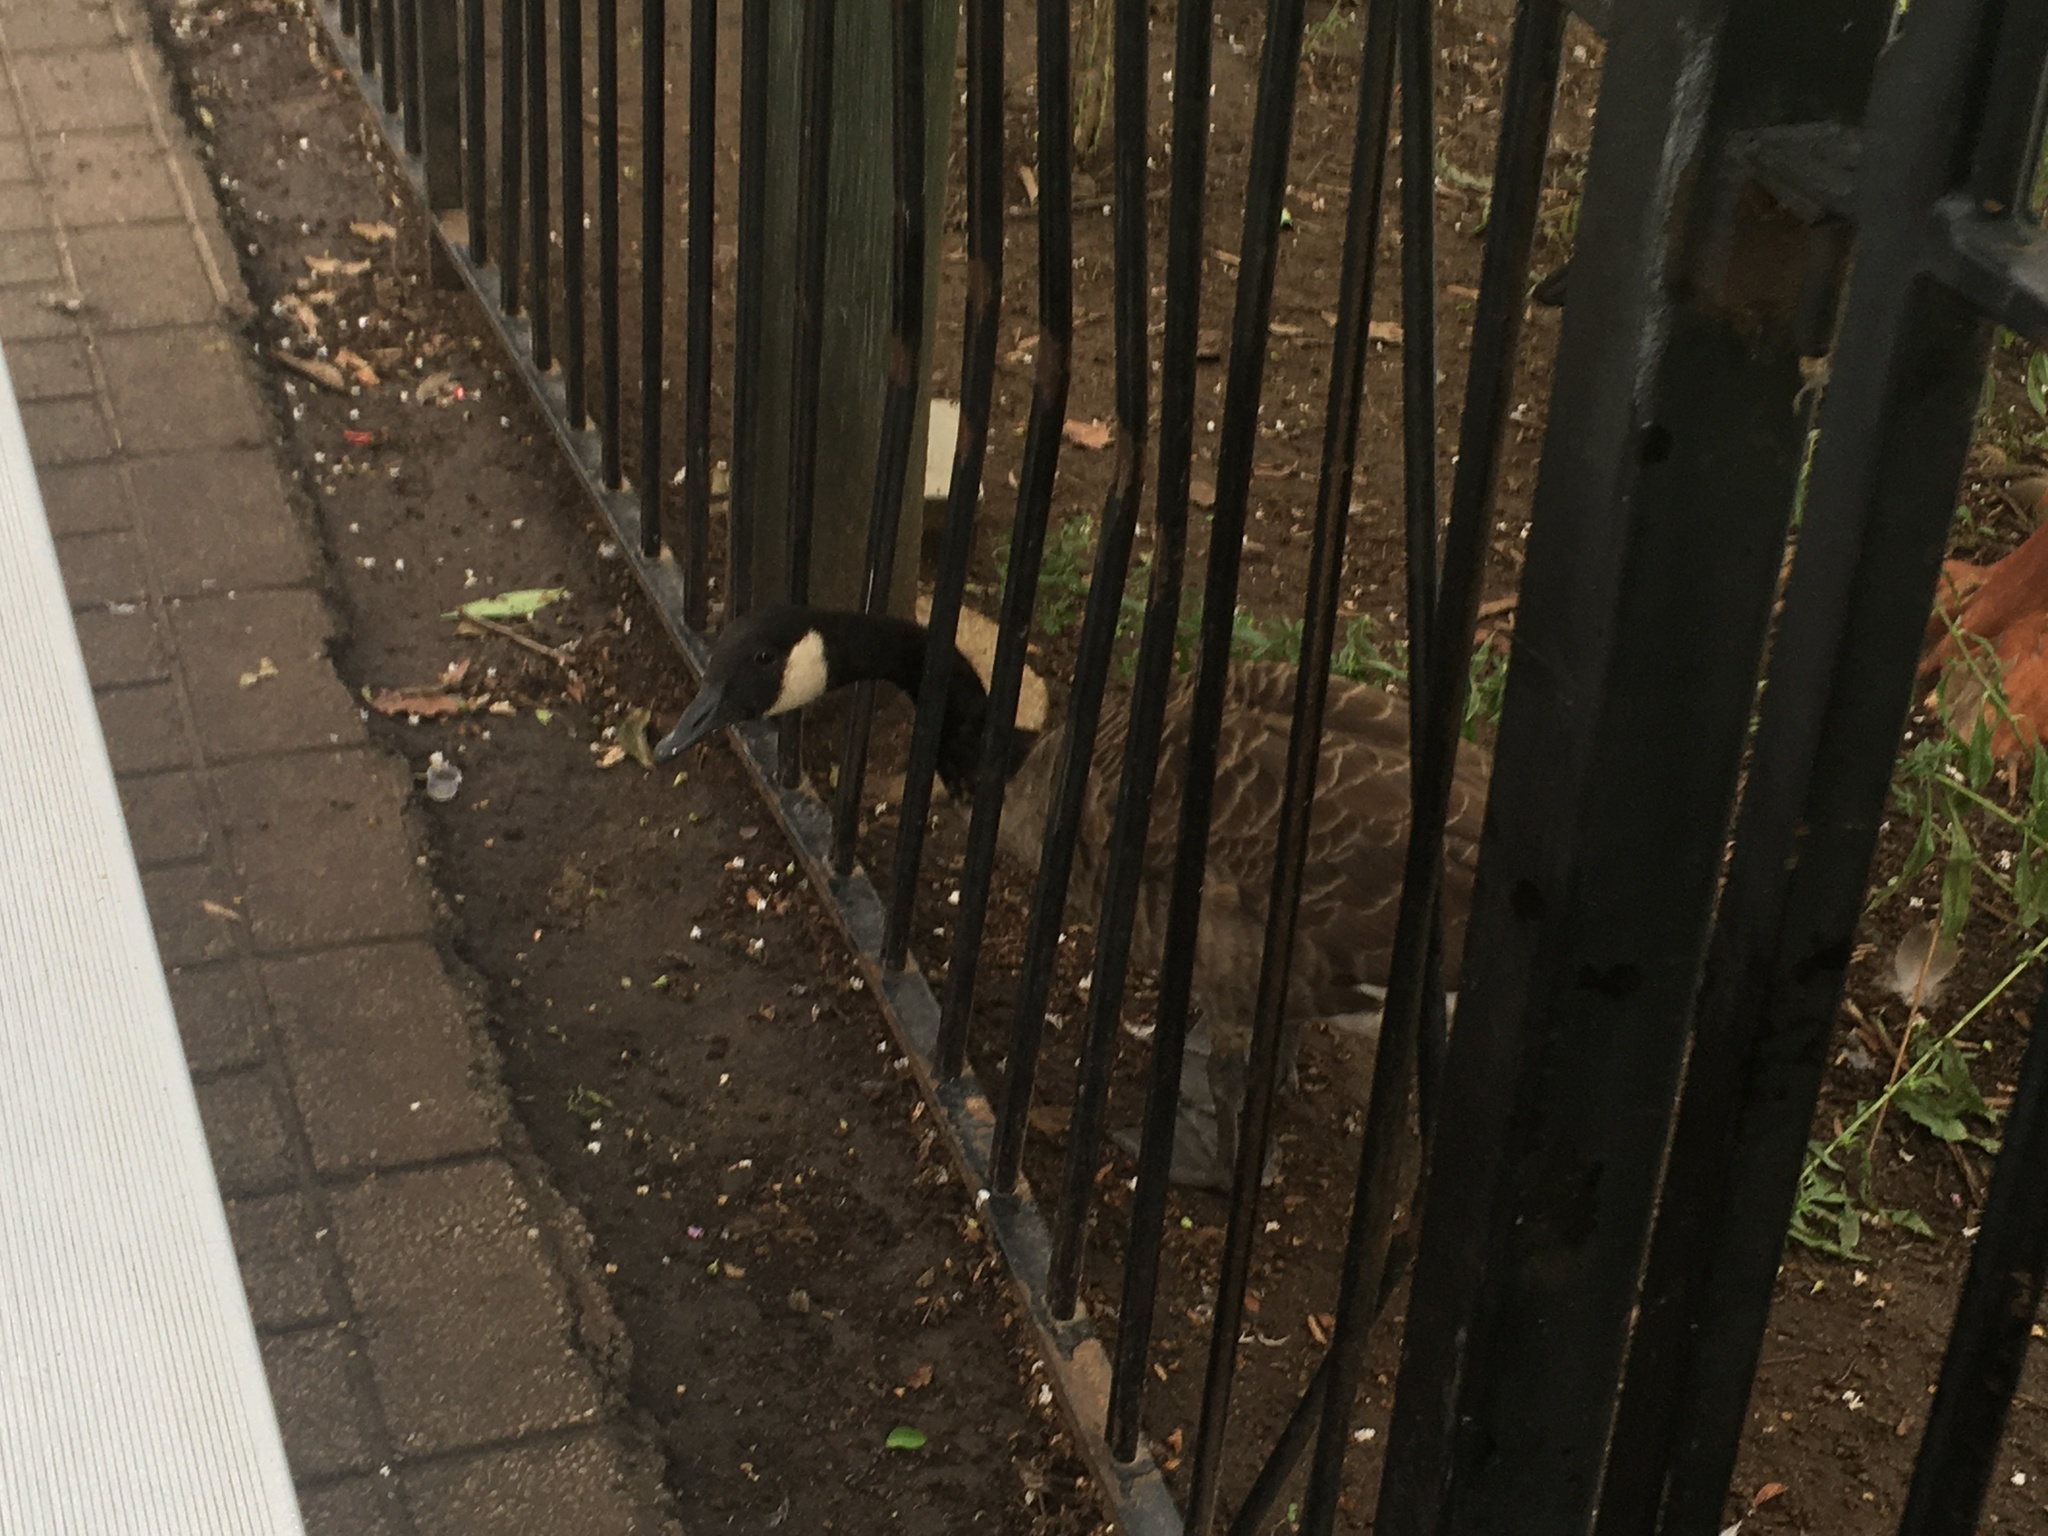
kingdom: Animalia
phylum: Chordata
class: Aves
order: Anseriformes
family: Anatidae
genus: Branta
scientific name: Branta canadensis
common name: Canada goose
